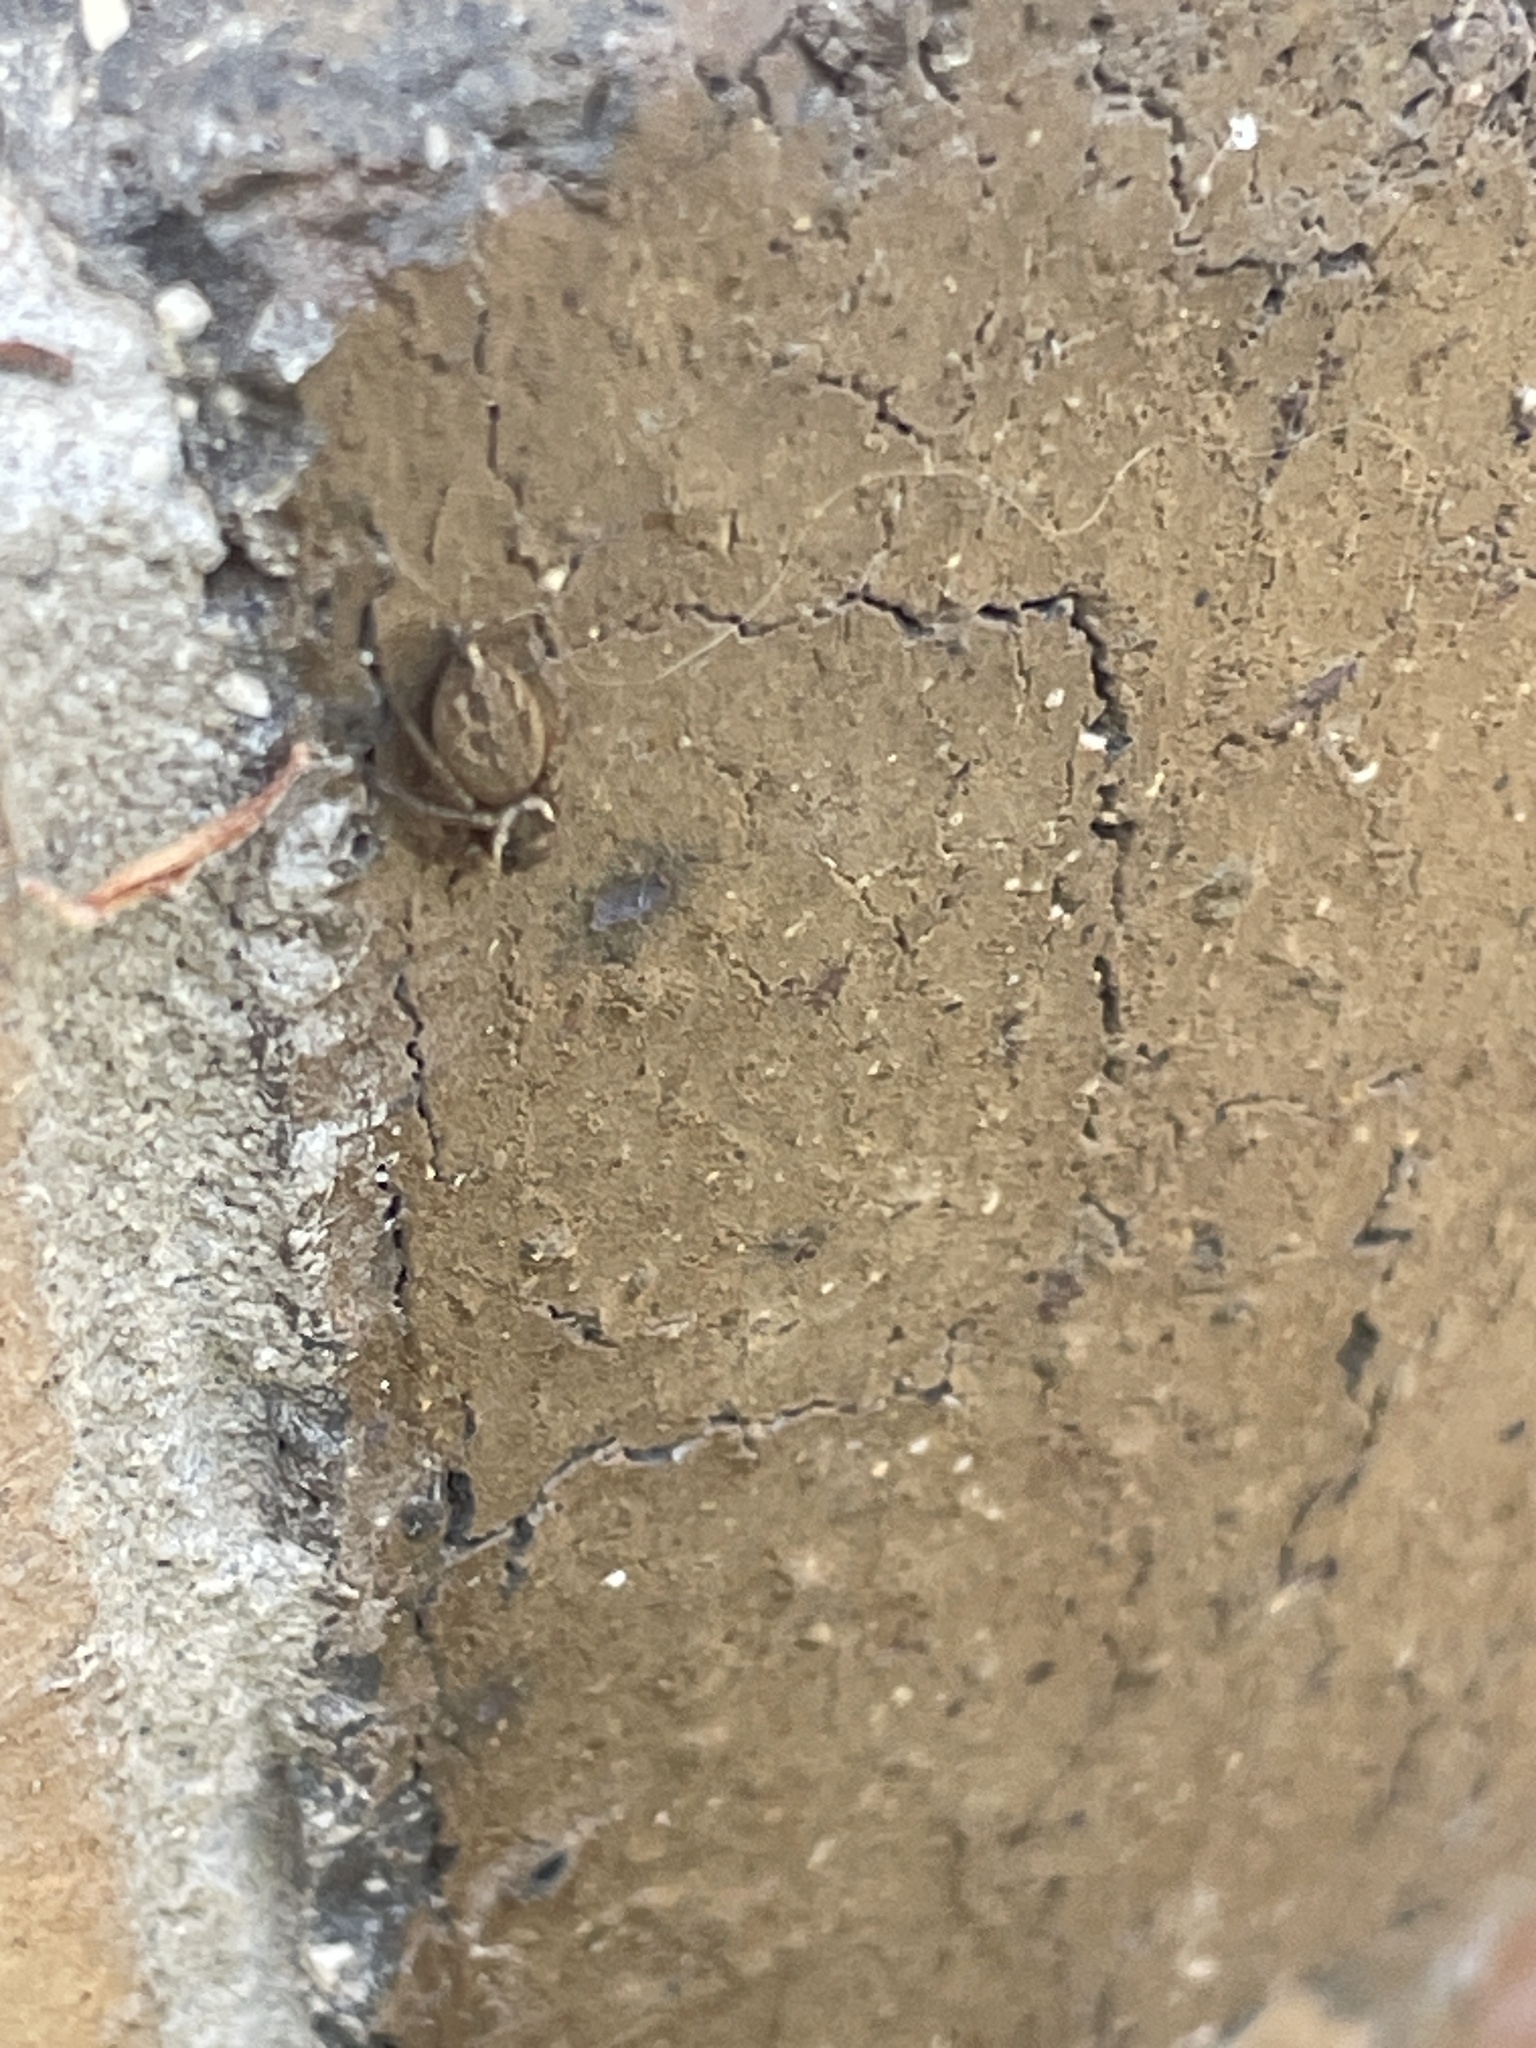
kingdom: Animalia
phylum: Arthropoda
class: Arachnida
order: Araneae
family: Salticidae
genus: Maratus
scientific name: Maratus griseus
